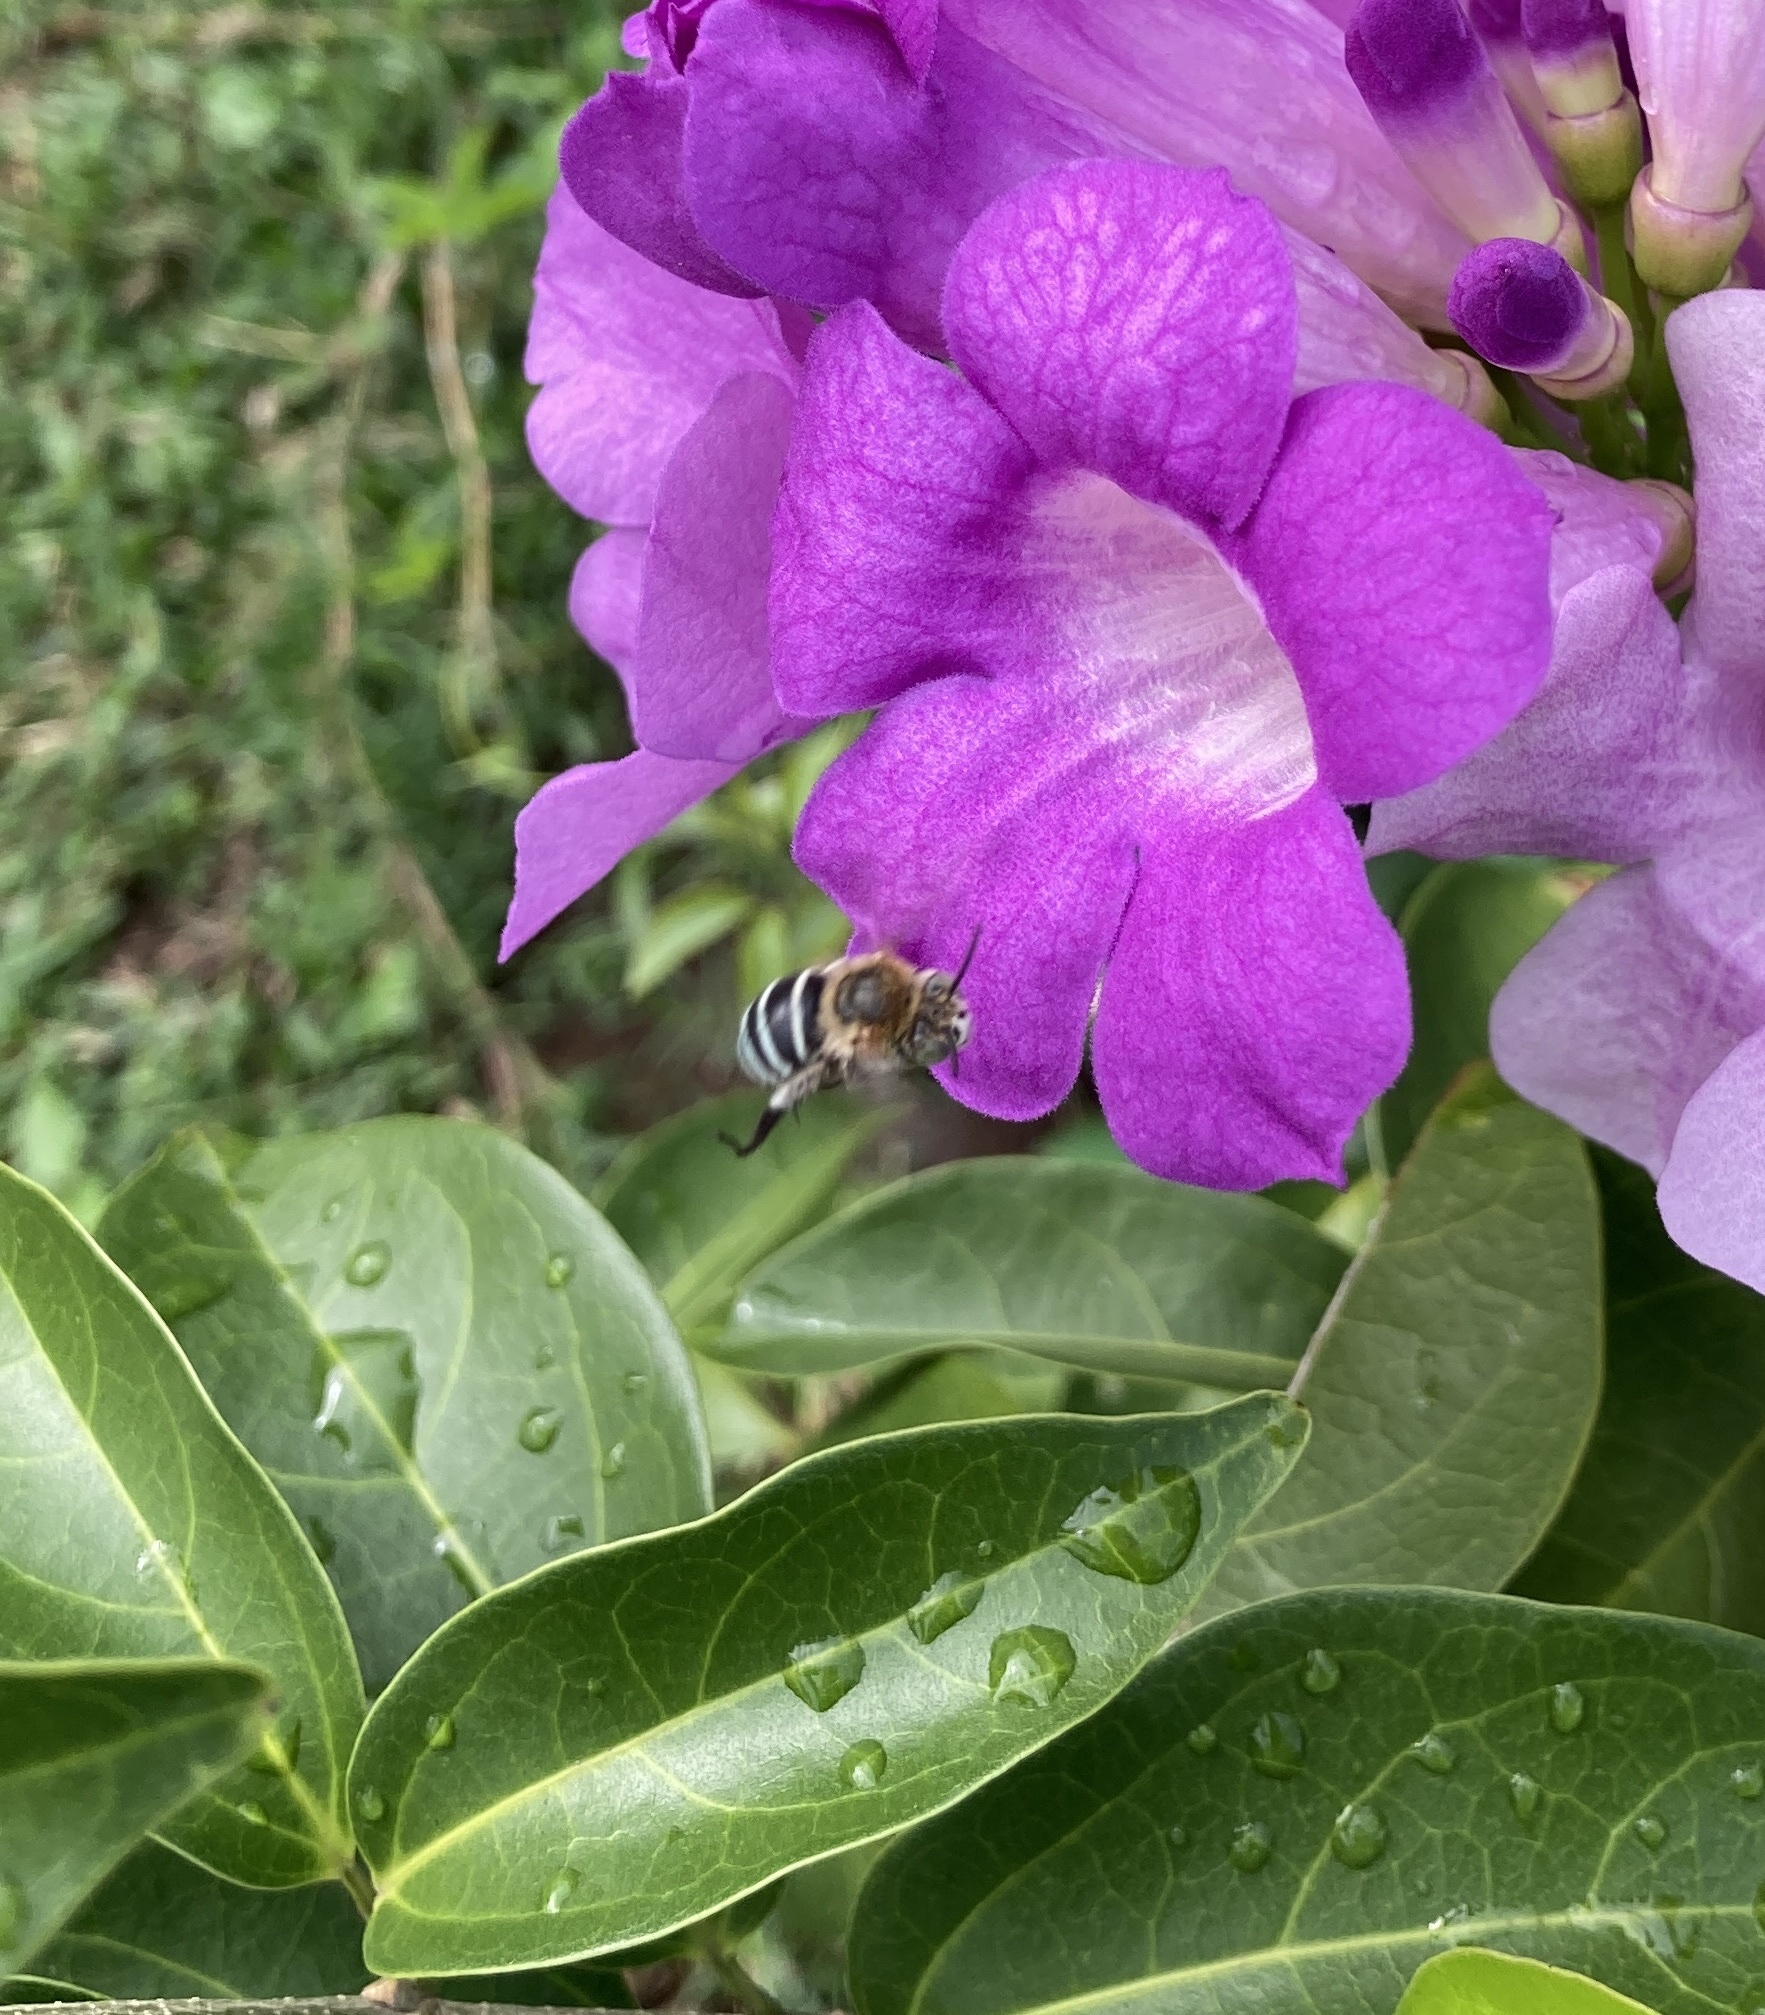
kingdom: Animalia
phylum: Arthropoda
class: Insecta
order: Hymenoptera
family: Apidae
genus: Amegilla
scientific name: Amegilla pulchra
